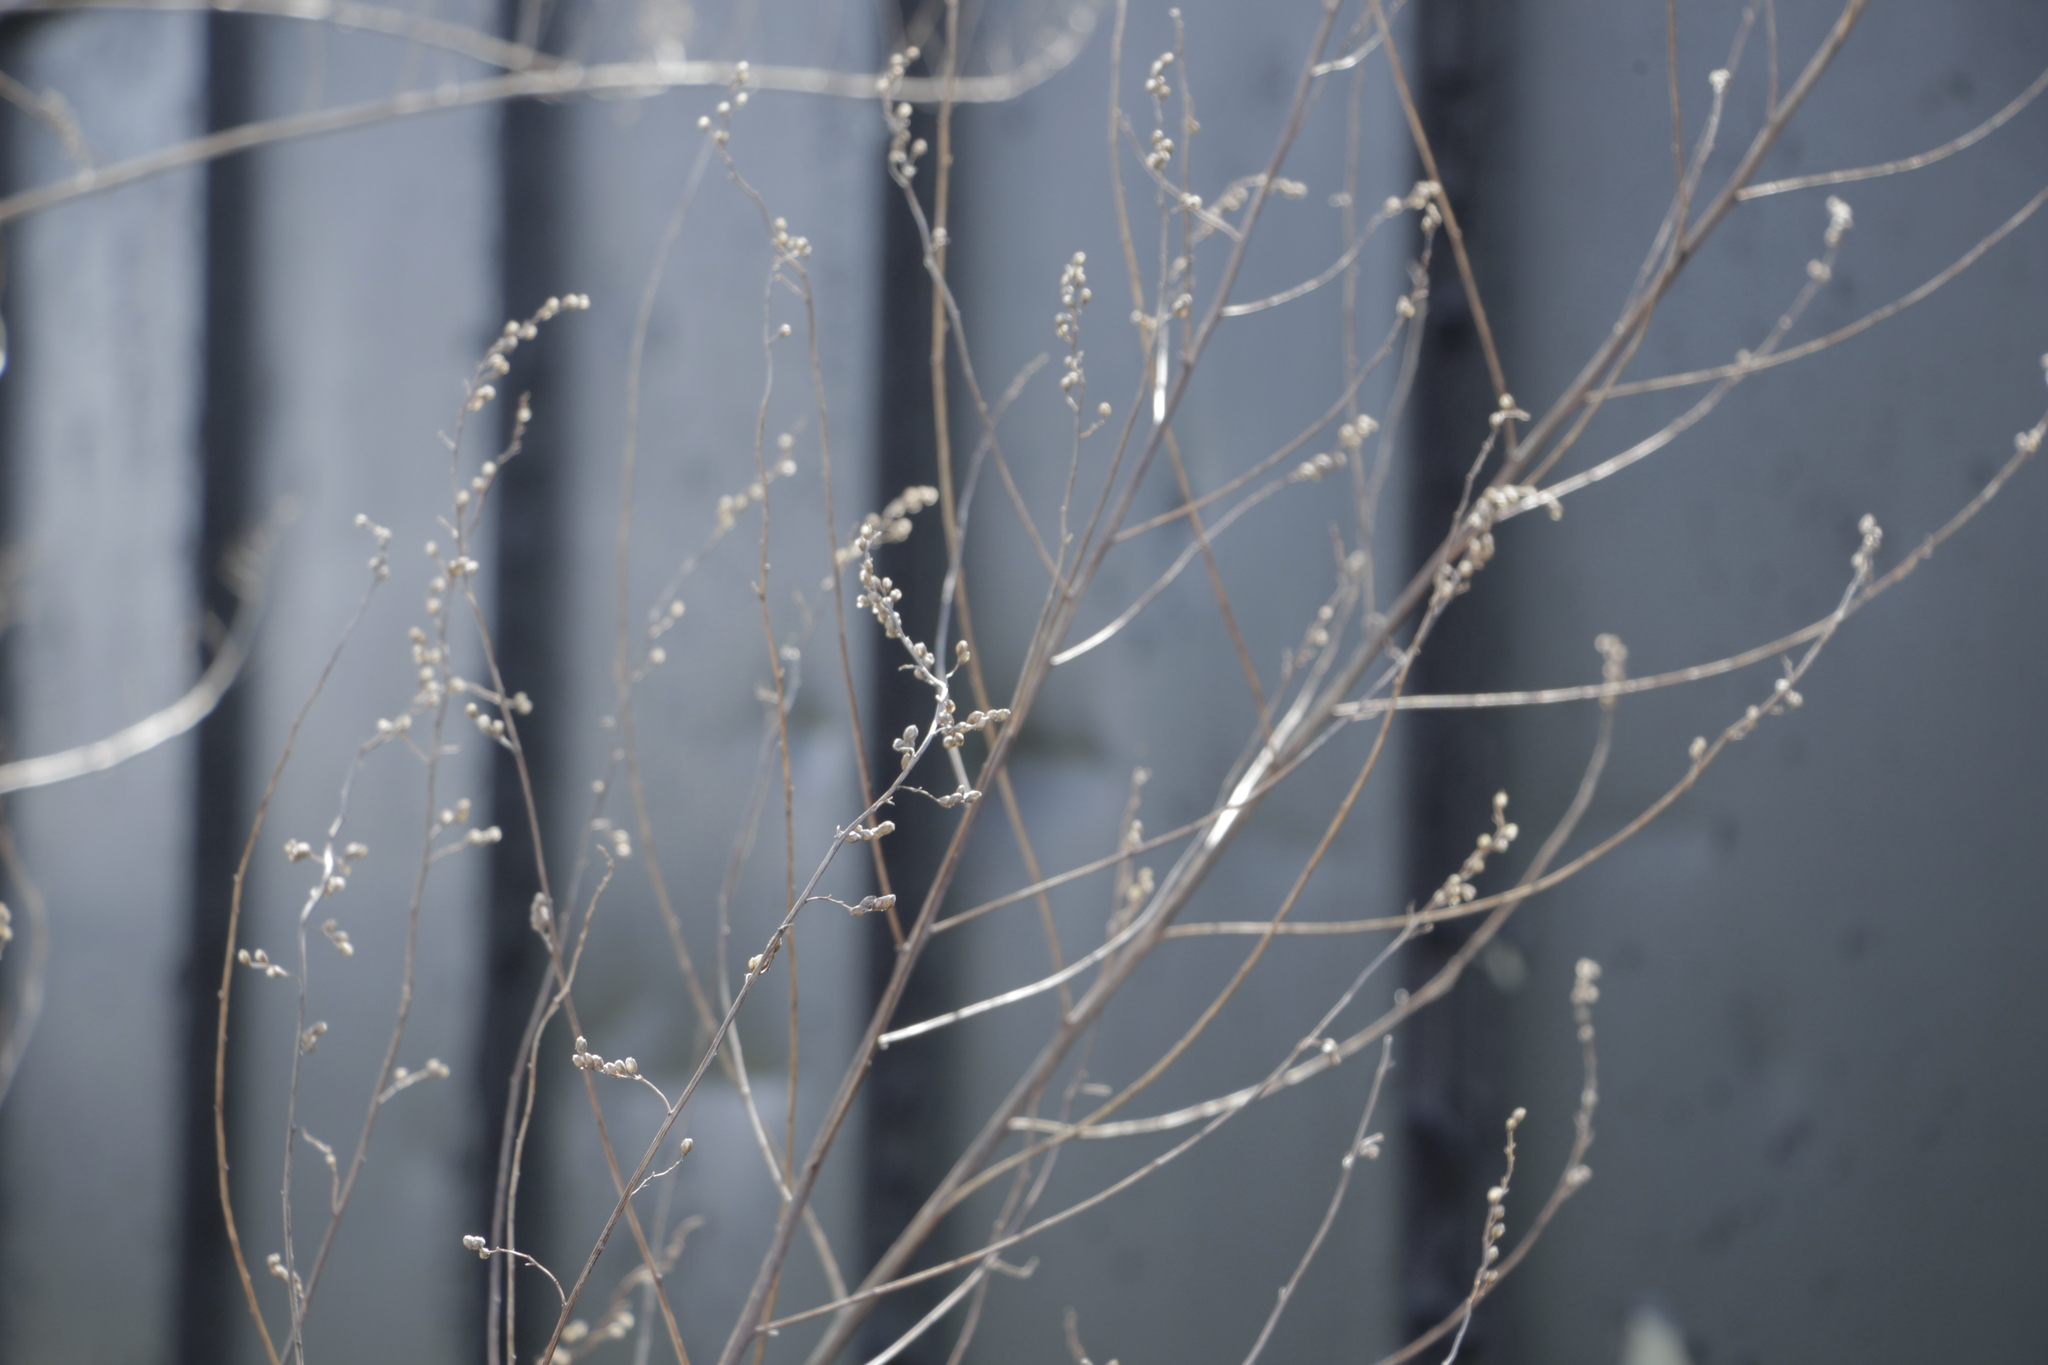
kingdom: Plantae
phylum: Tracheophyta
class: Magnoliopsida
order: Asterales
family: Asteraceae
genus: Artemisia
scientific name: Artemisia vulgaris
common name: Mugwort
